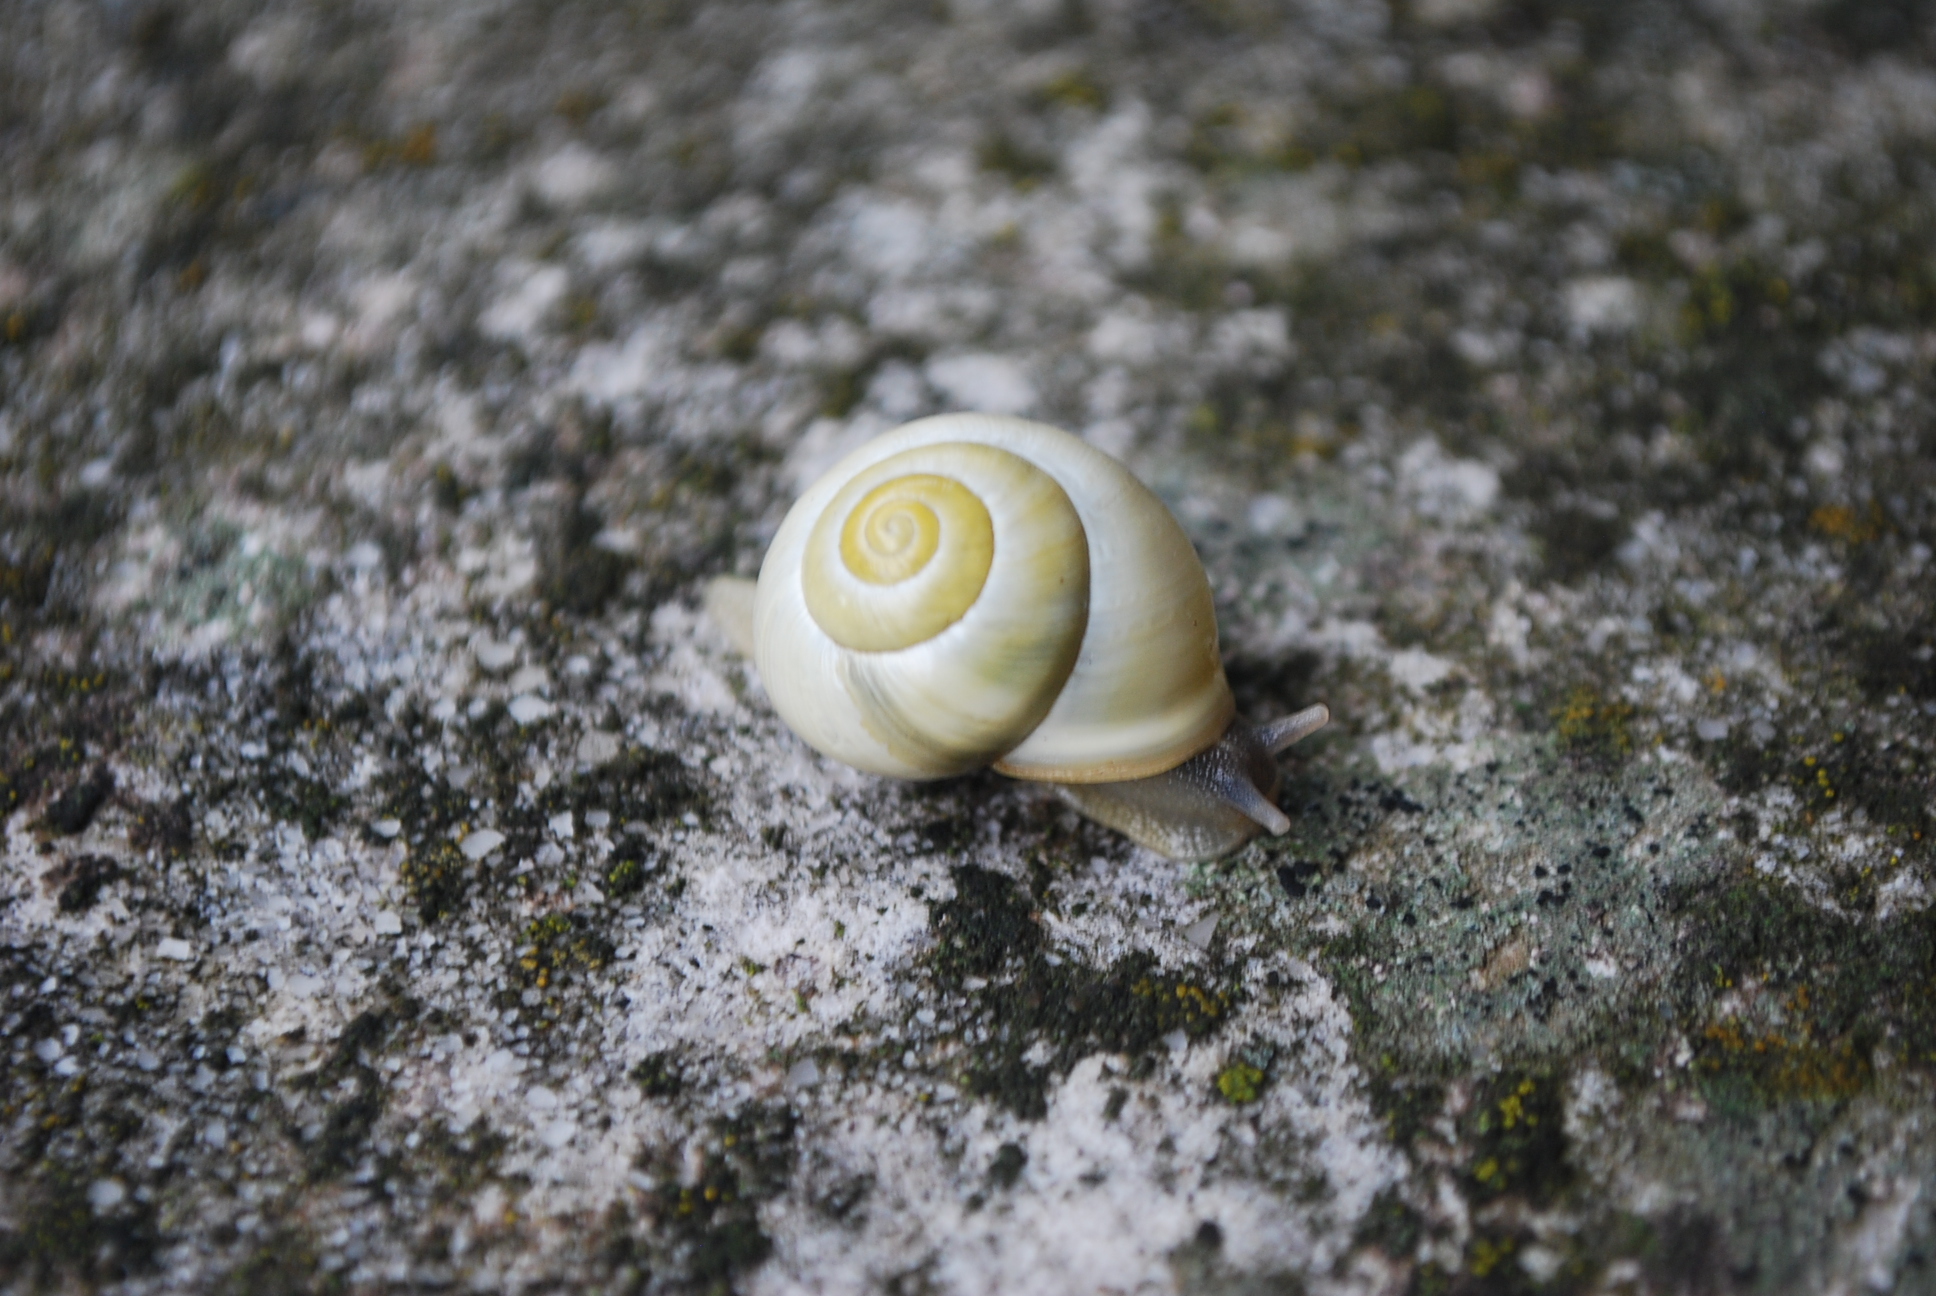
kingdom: Animalia
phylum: Mollusca
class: Gastropoda
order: Stylommatophora
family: Helicidae
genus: Cepaea
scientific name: Cepaea hortensis
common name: White-lip gardensnail
